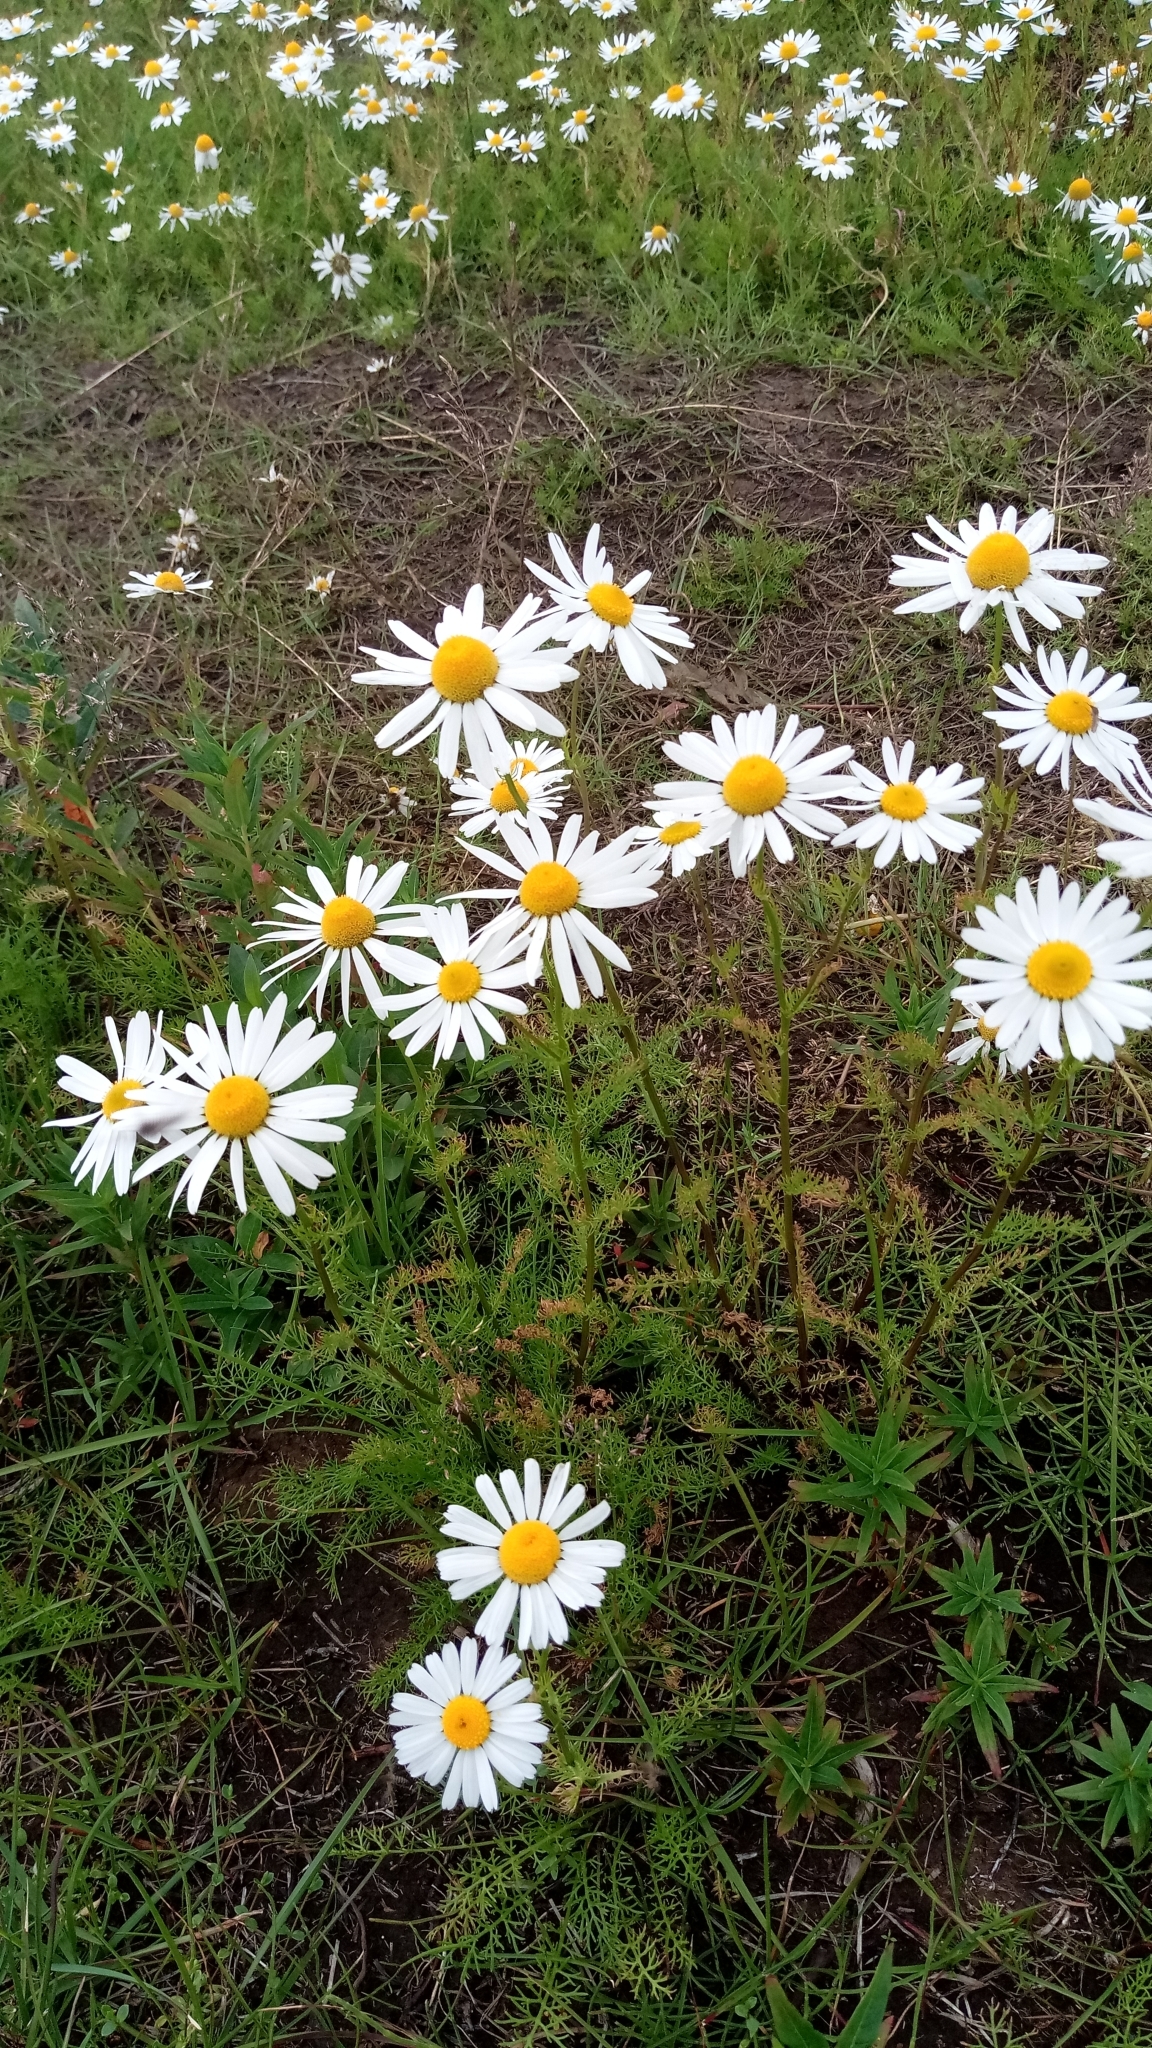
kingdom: Plantae
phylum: Tracheophyta
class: Magnoliopsida
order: Asterales
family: Asteraceae
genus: Tripleurospermum
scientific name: Tripleurospermum hookeri
